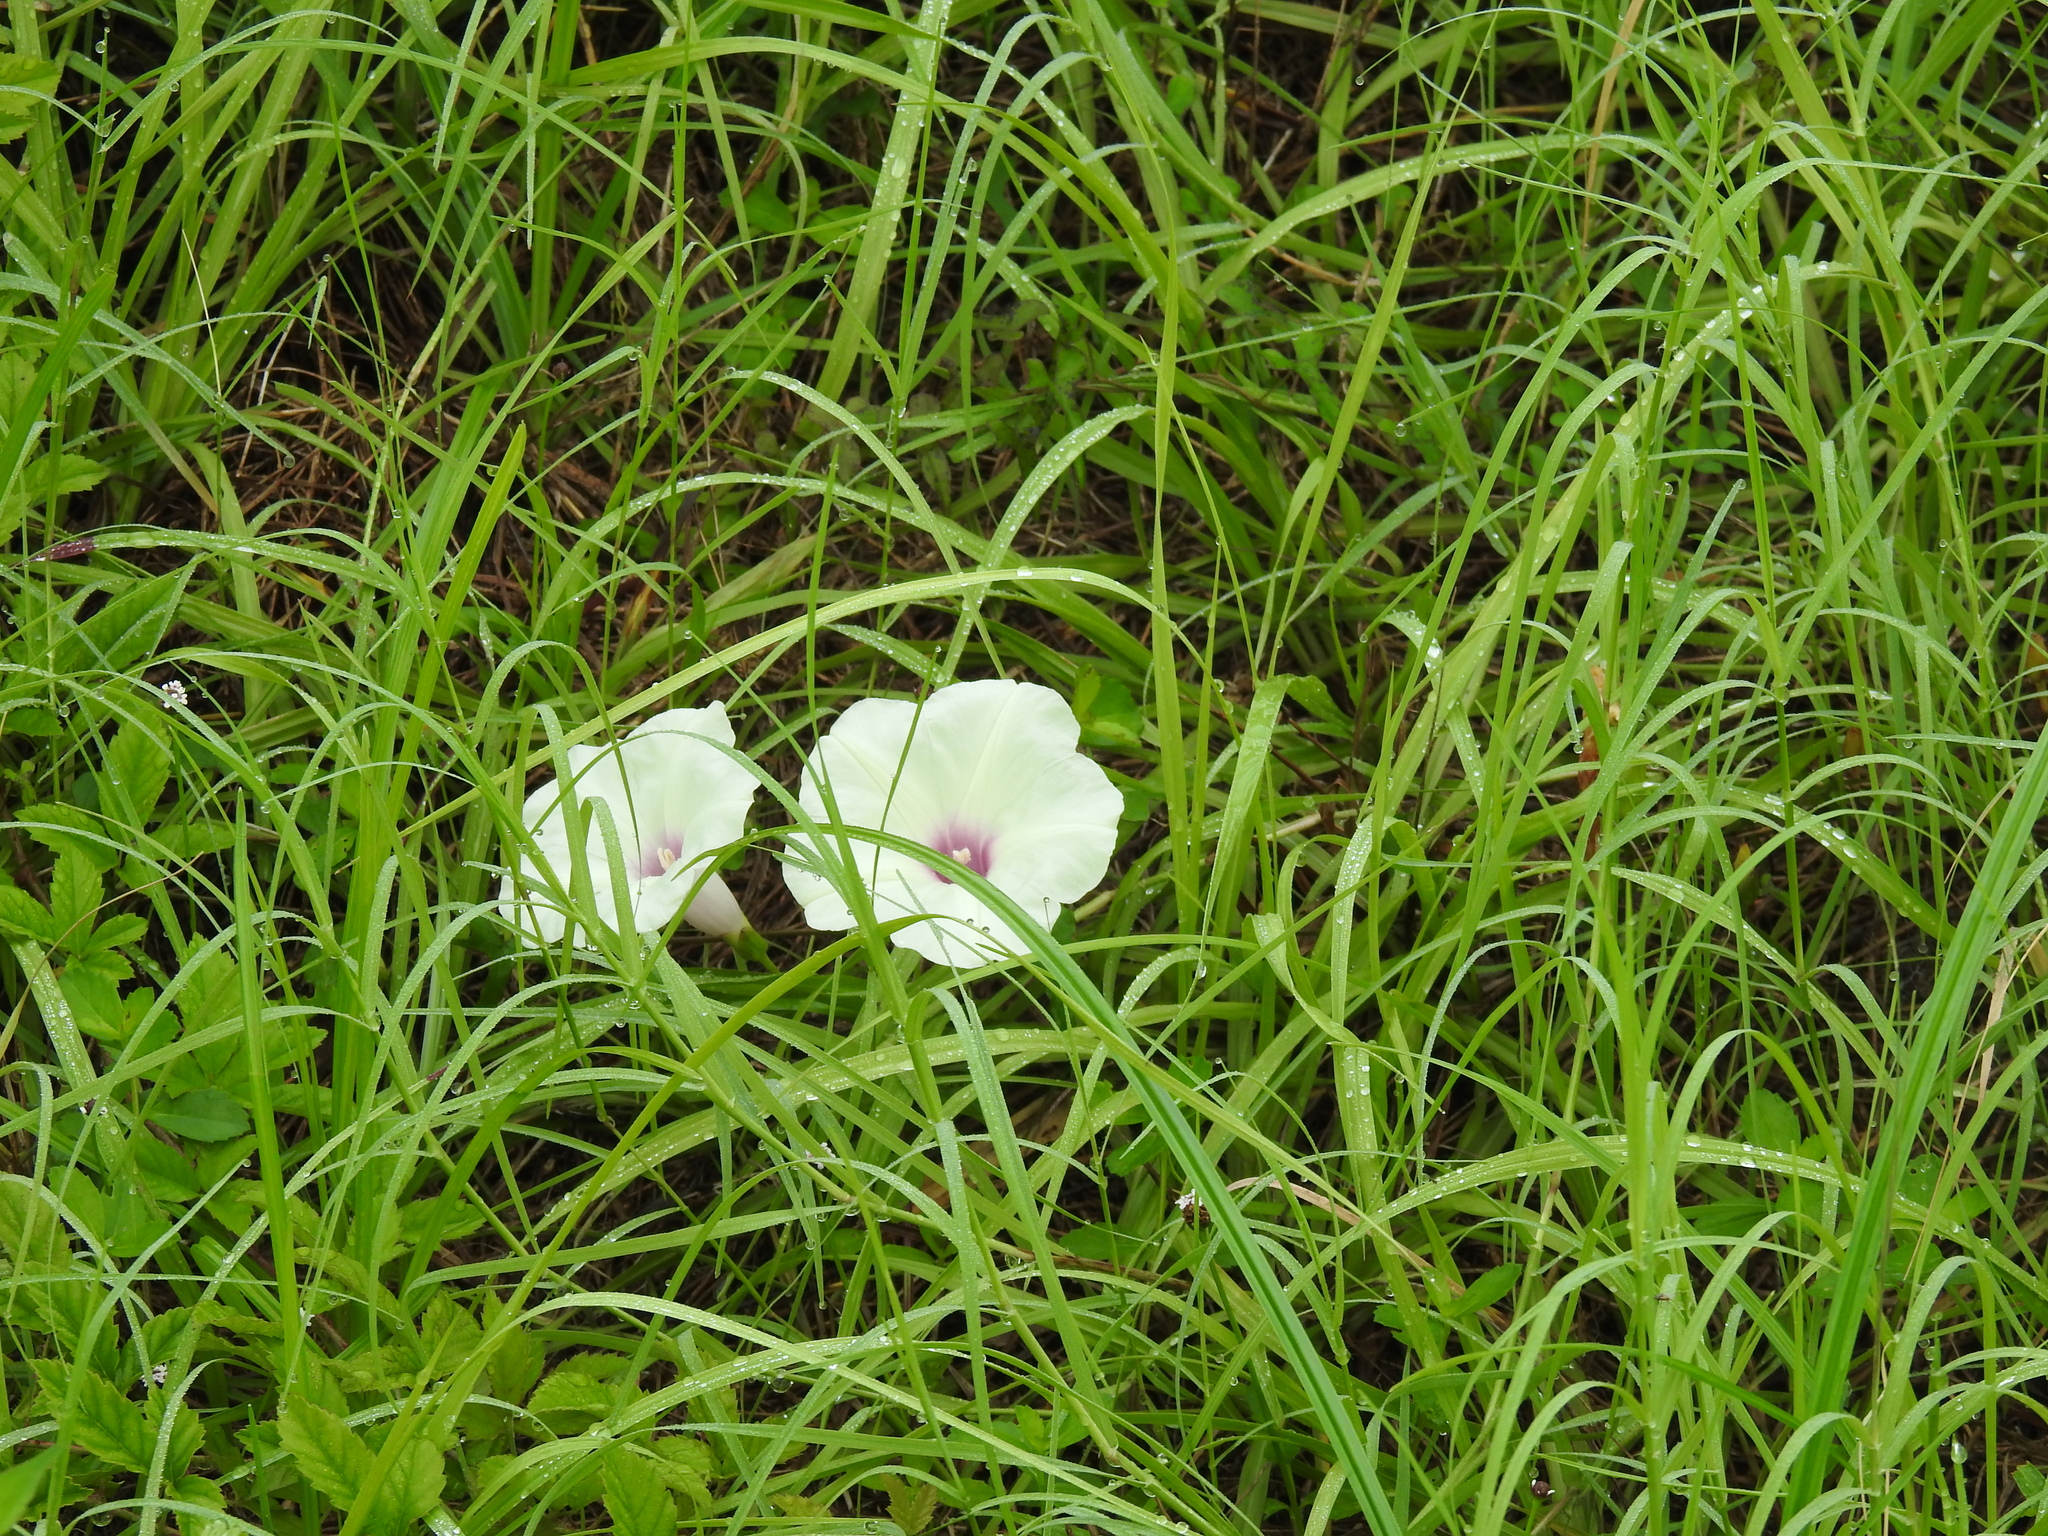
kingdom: Plantae
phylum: Tracheophyta
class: Magnoliopsida
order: Solanales
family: Convolvulaceae
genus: Ipomoea
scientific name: Ipomoea pandurata
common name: Man-of-the-earth
